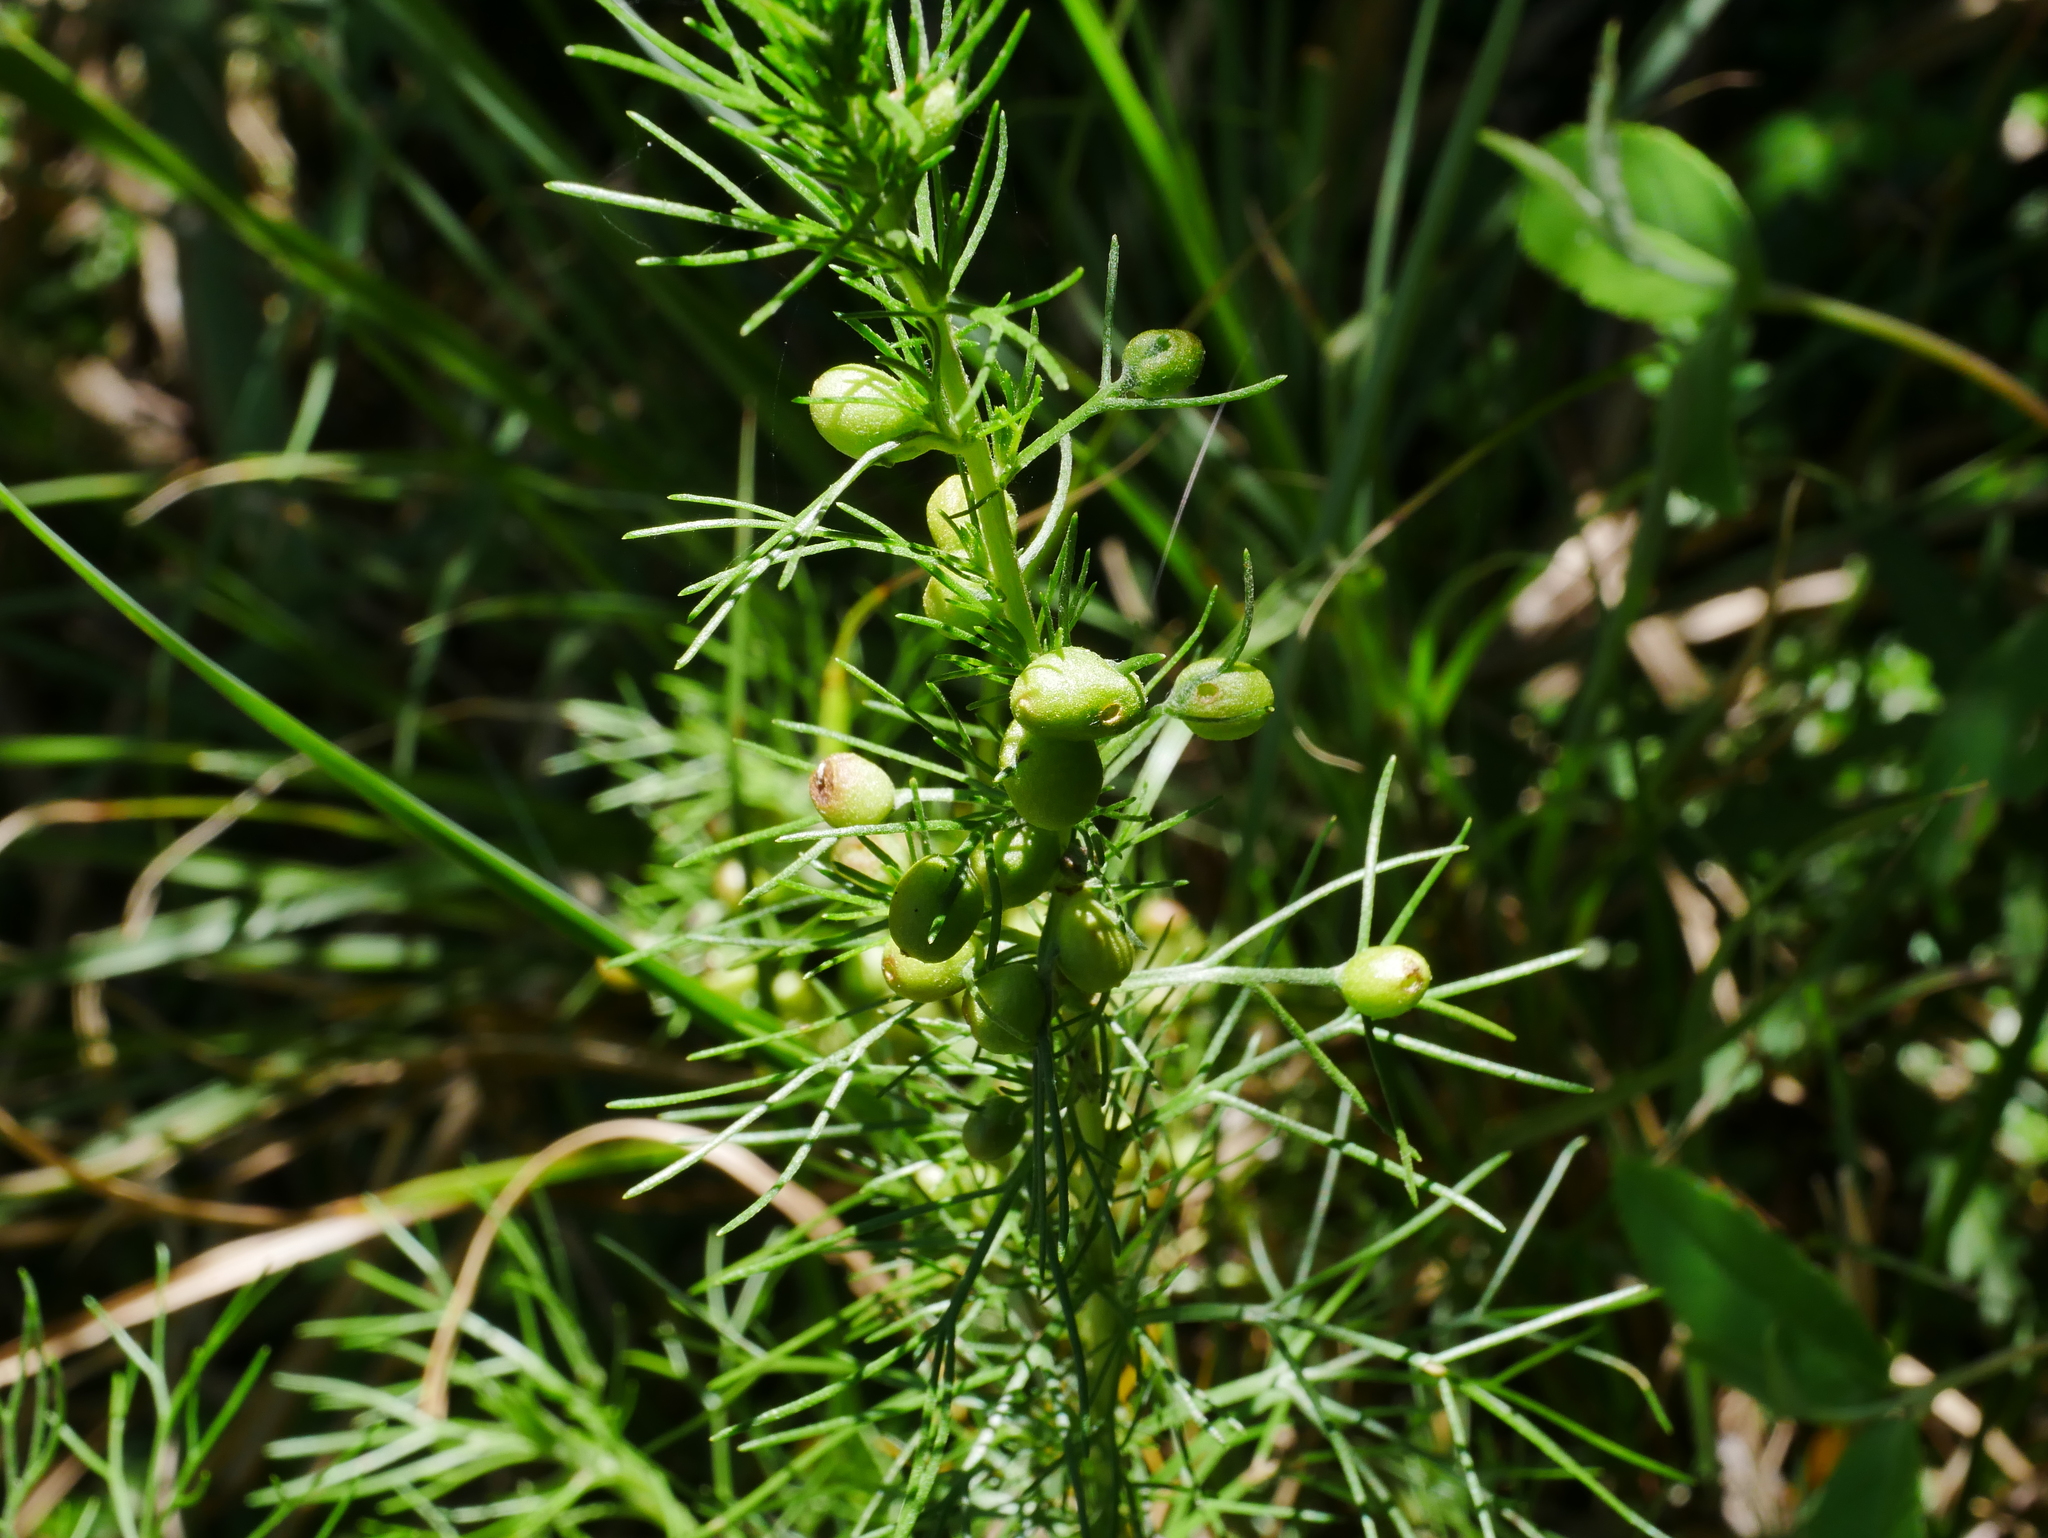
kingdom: Plantae
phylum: Tracheophyta
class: Magnoliopsida
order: Asterales
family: Asteraceae
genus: Artemisia
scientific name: Artemisia morrisonensis
